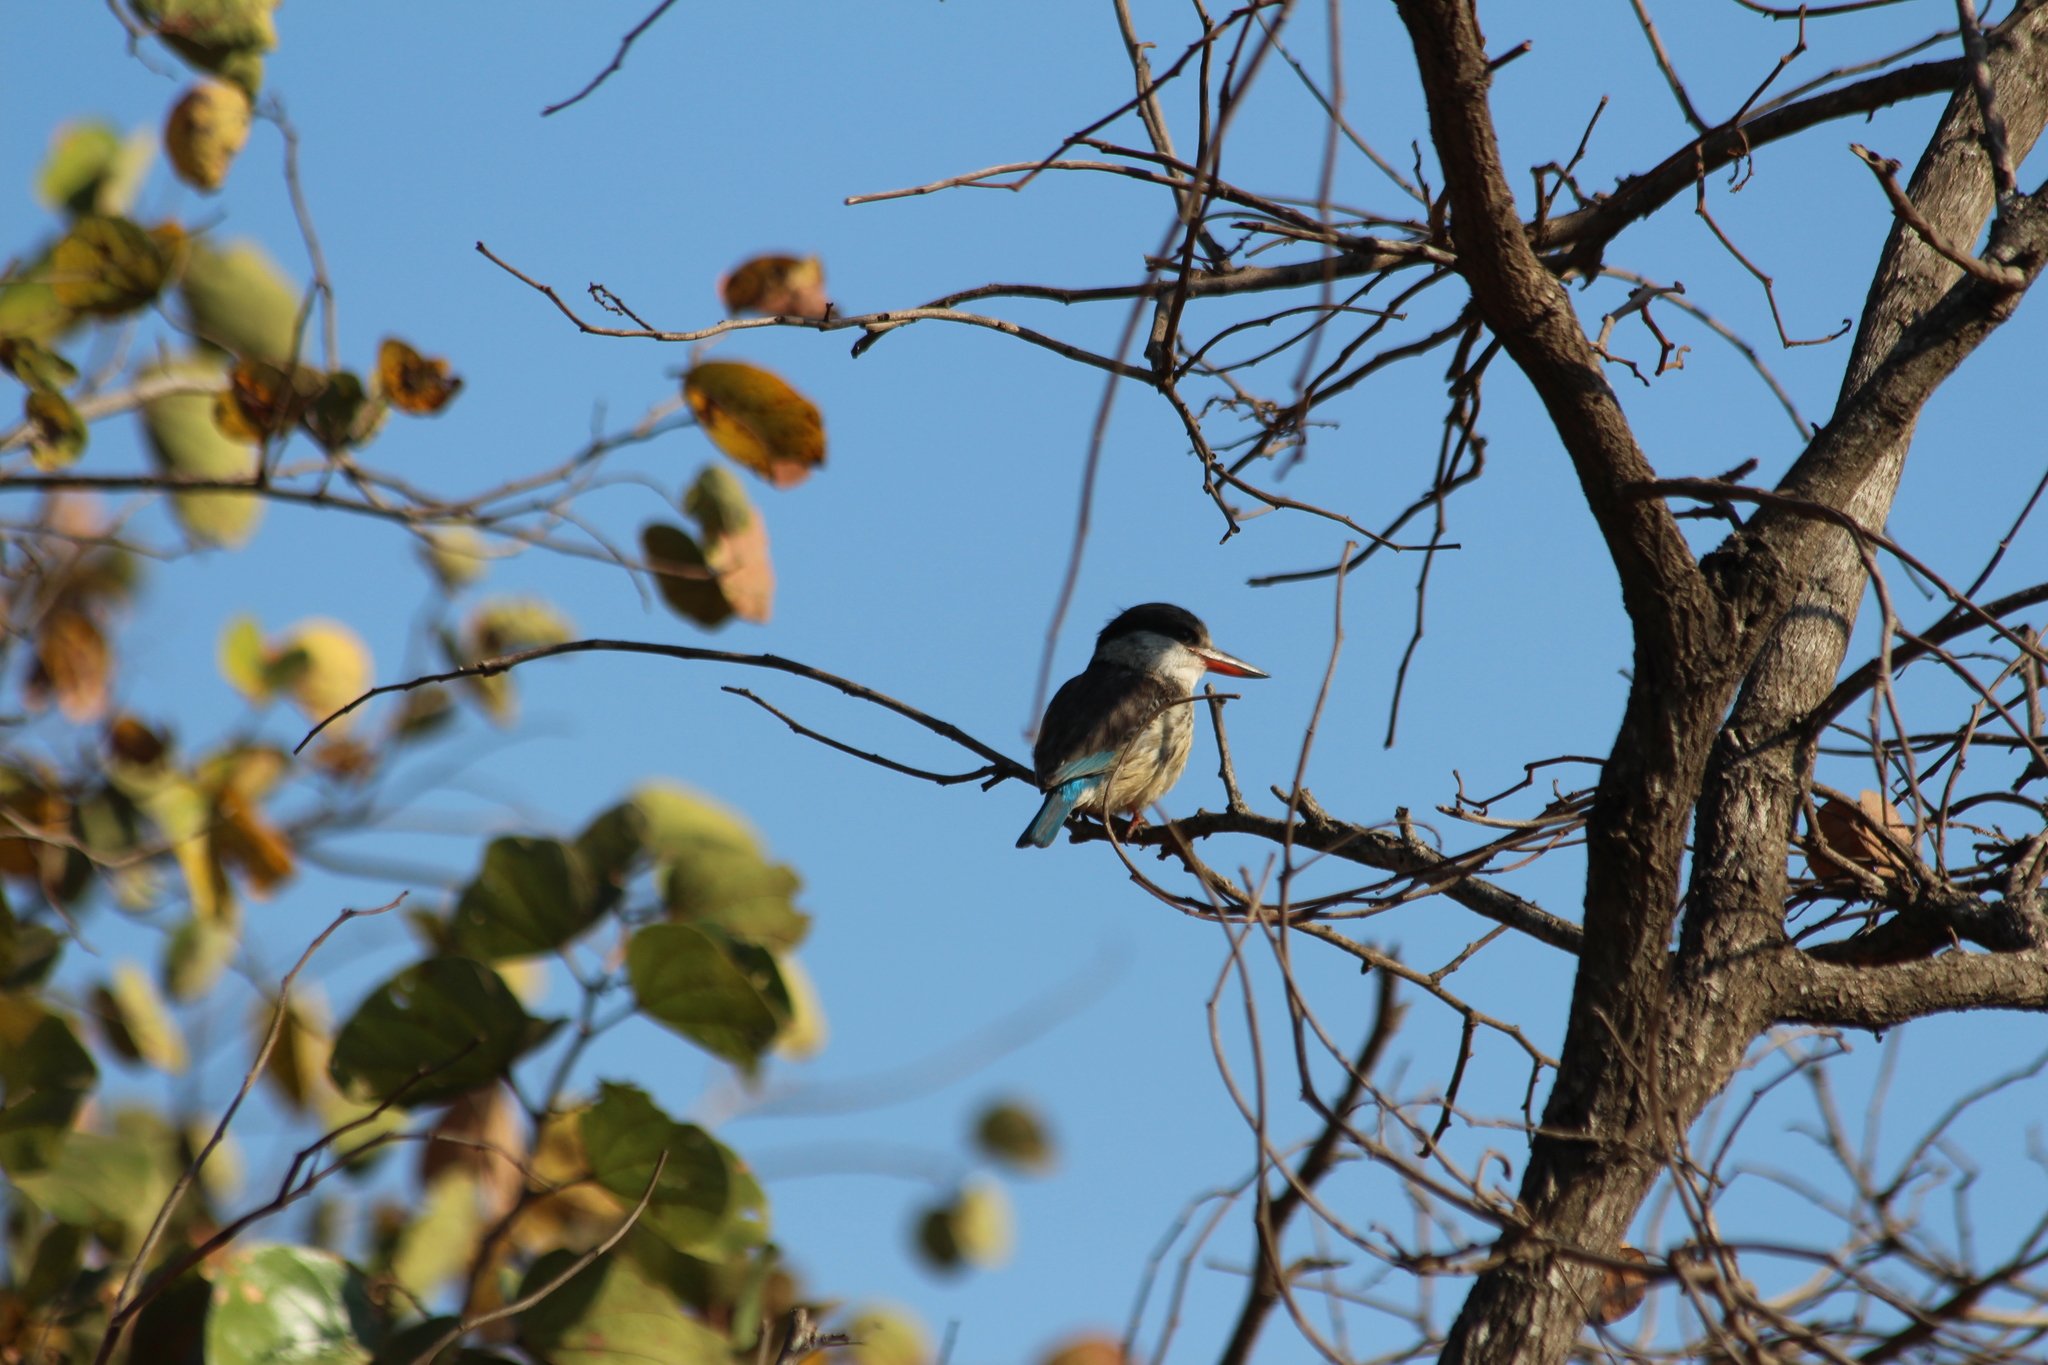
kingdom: Animalia
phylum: Chordata
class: Aves
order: Coraciiformes
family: Alcedinidae
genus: Halcyon
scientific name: Halcyon chelicuti
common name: Striped kingfisher
